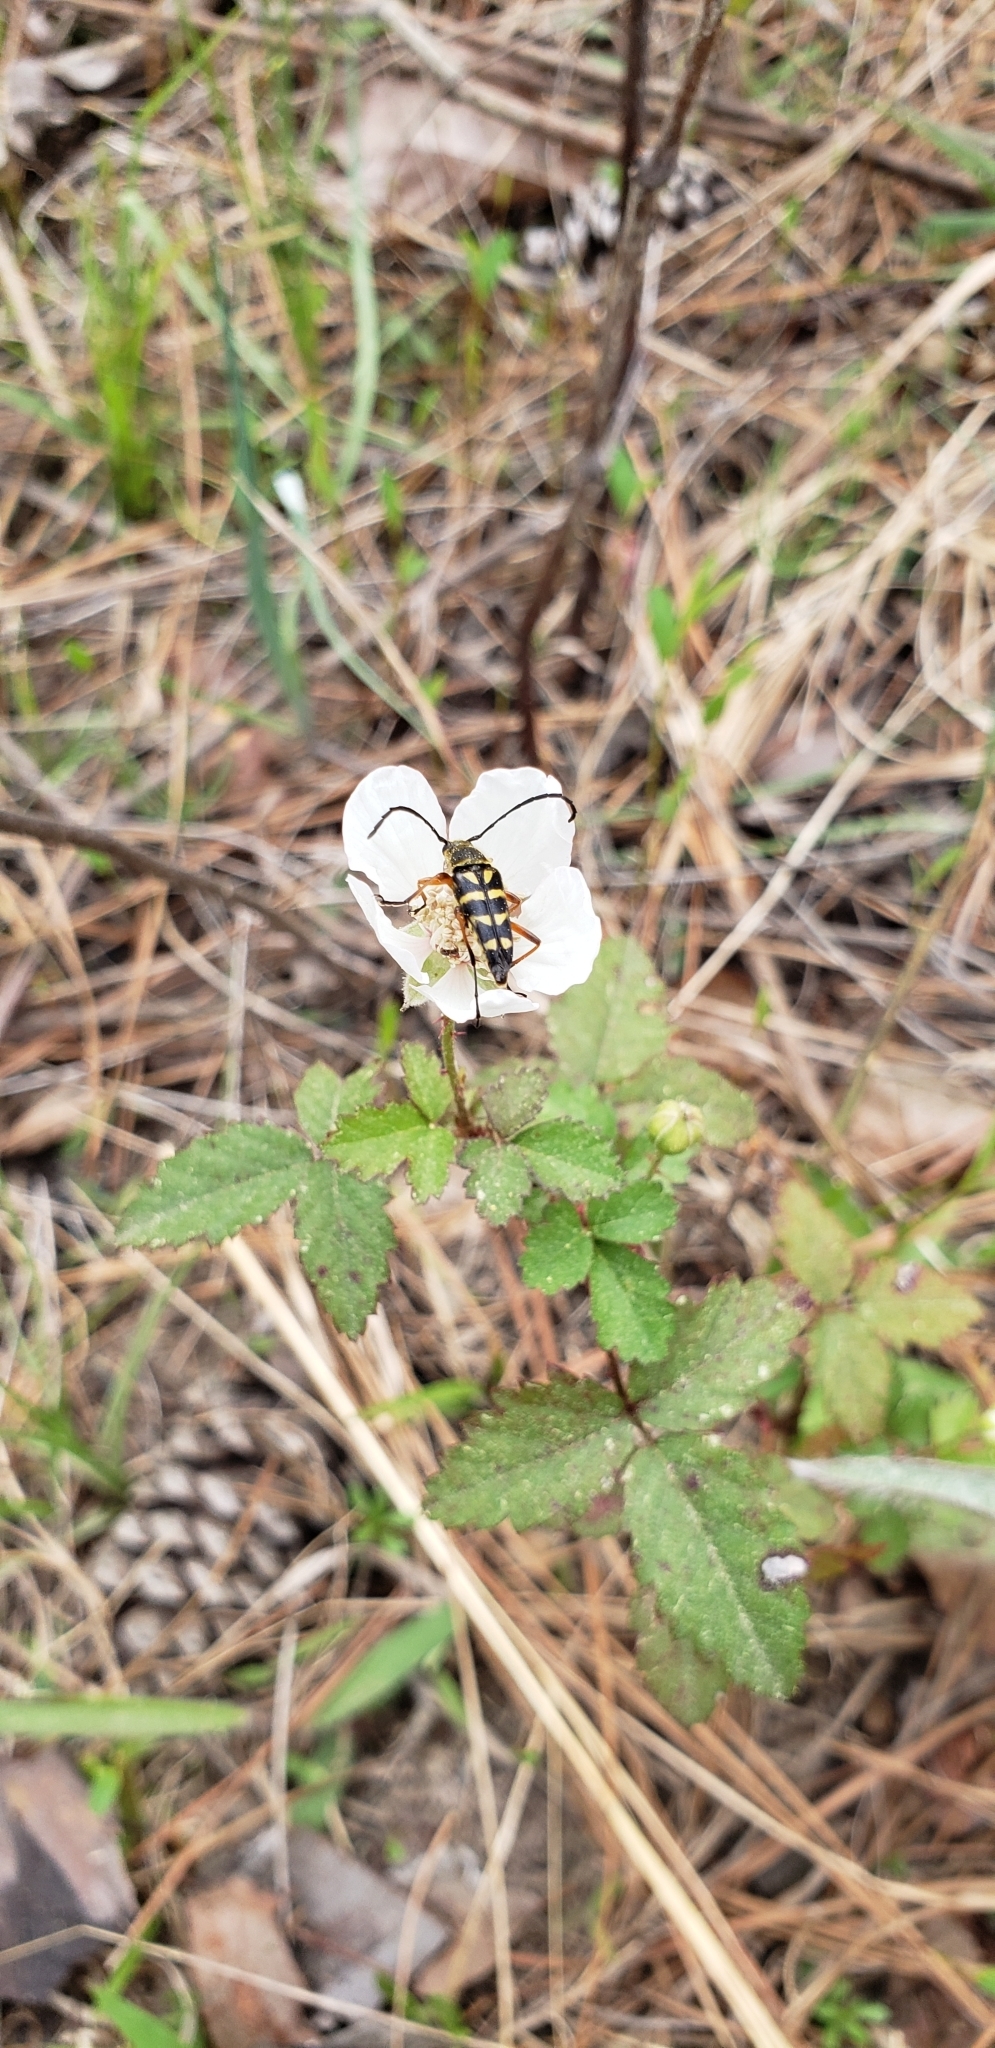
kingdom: Animalia
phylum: Arthropoda
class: Insecta
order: Coleoptera
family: Cerambycidae
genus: Typocerus
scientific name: Typocerus zebra
